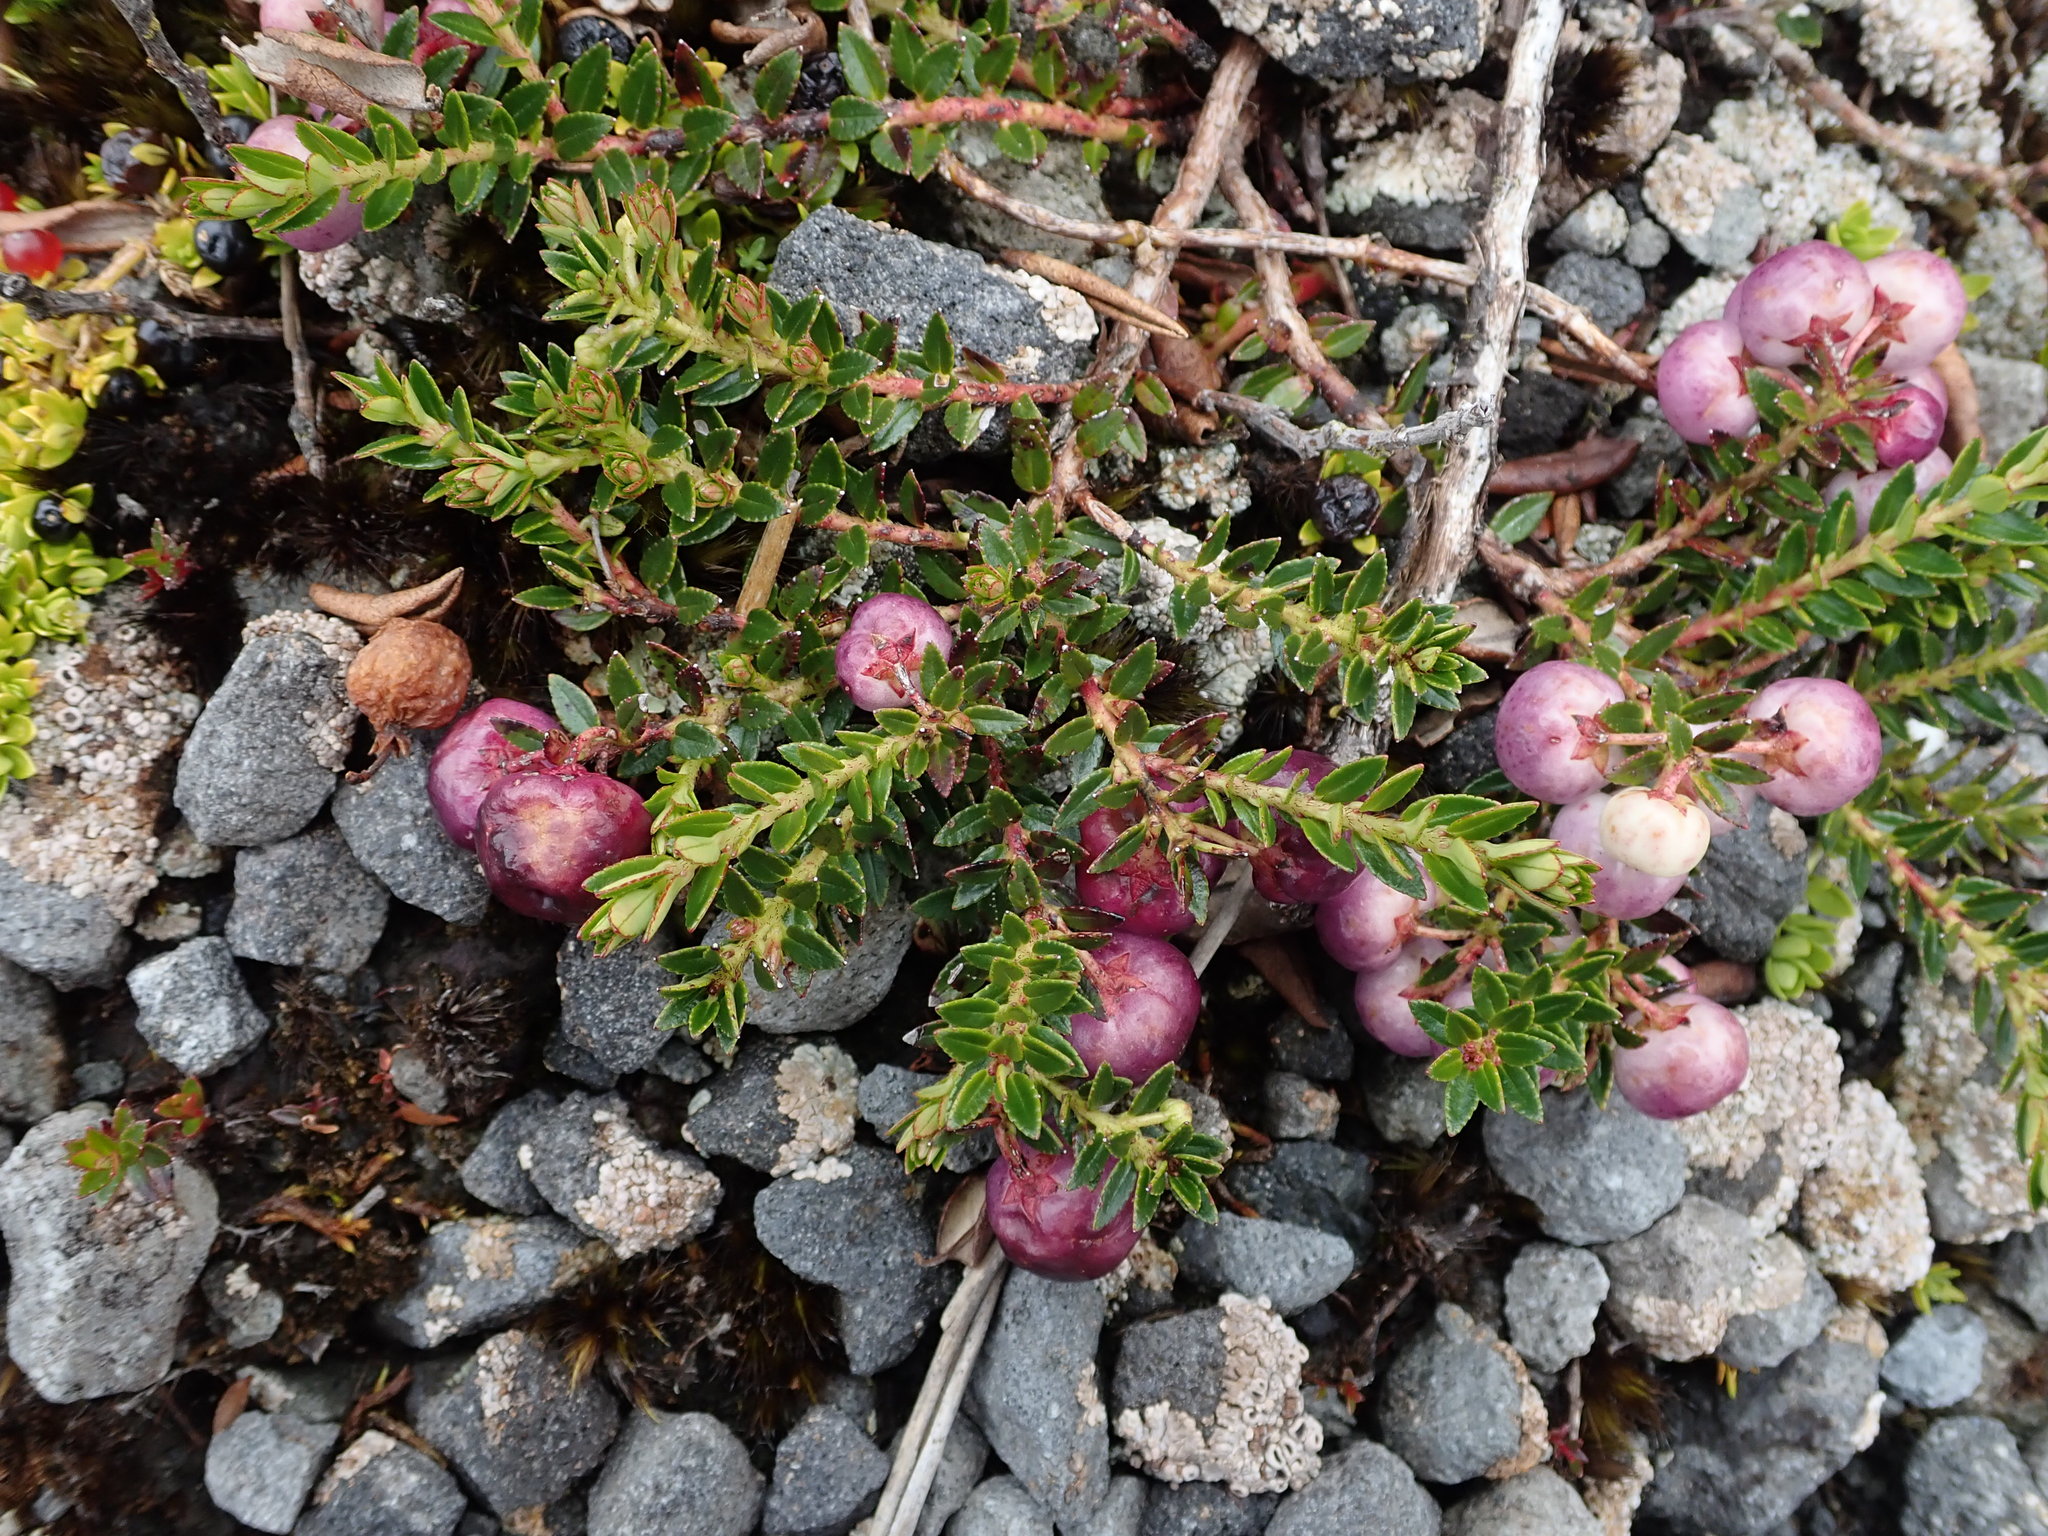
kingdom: Plantae
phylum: Tracheophyta
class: Magnoliopsida
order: Ericales
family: Ericaceae
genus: Gaultheria
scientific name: Gaultheria myrsinoides
